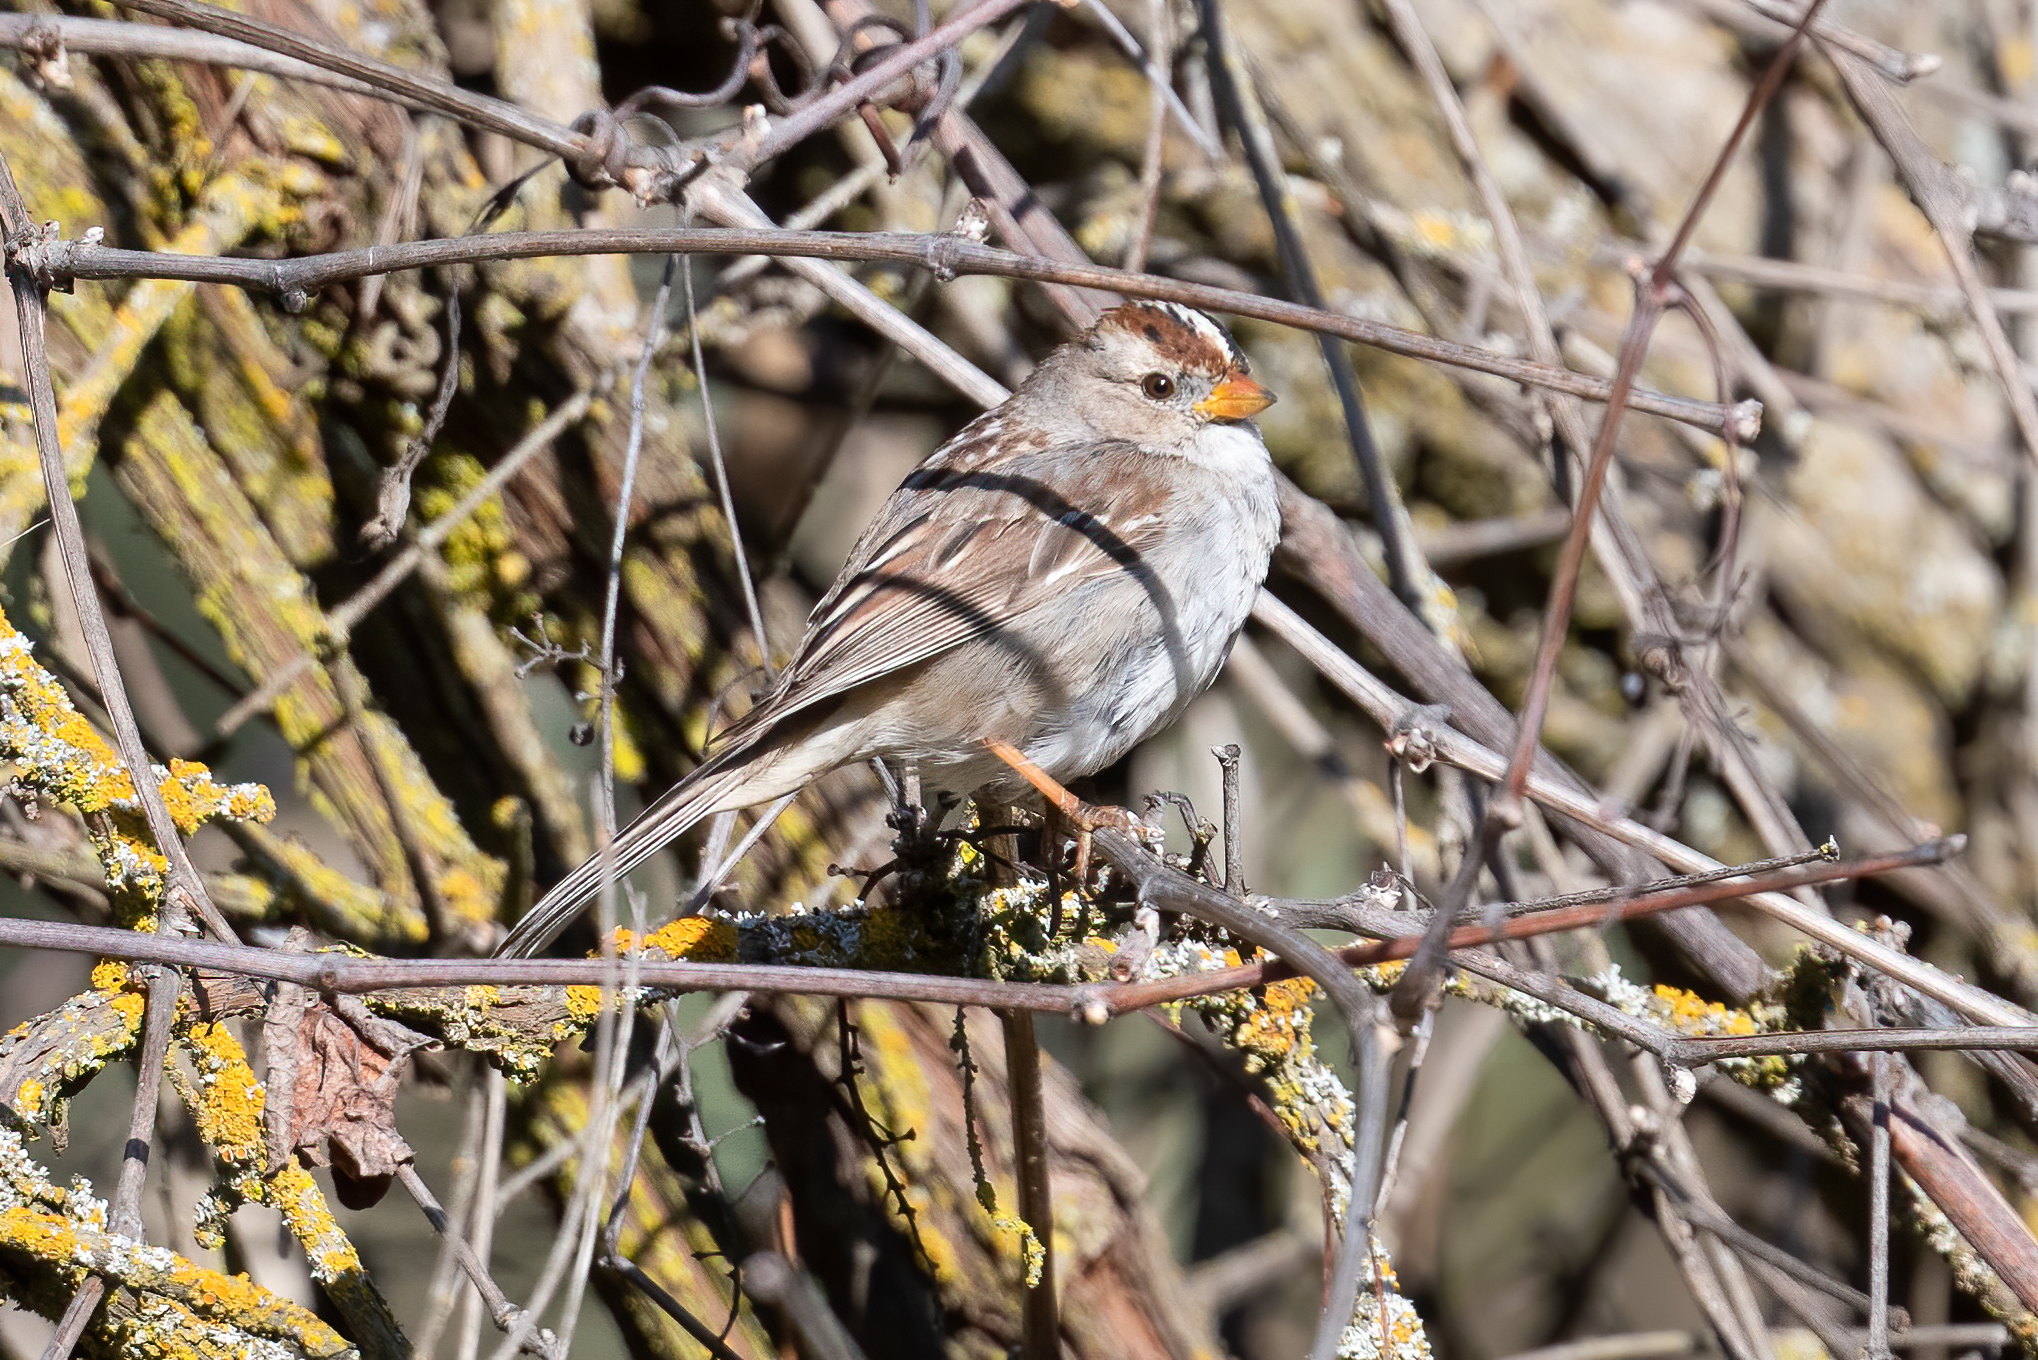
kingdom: Animalia
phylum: Chordata
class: Aves
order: Passeriformes
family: Passerellidae
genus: Zonotrichia
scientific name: Zonotrichia leucophrys
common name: White-crowned sparrow
